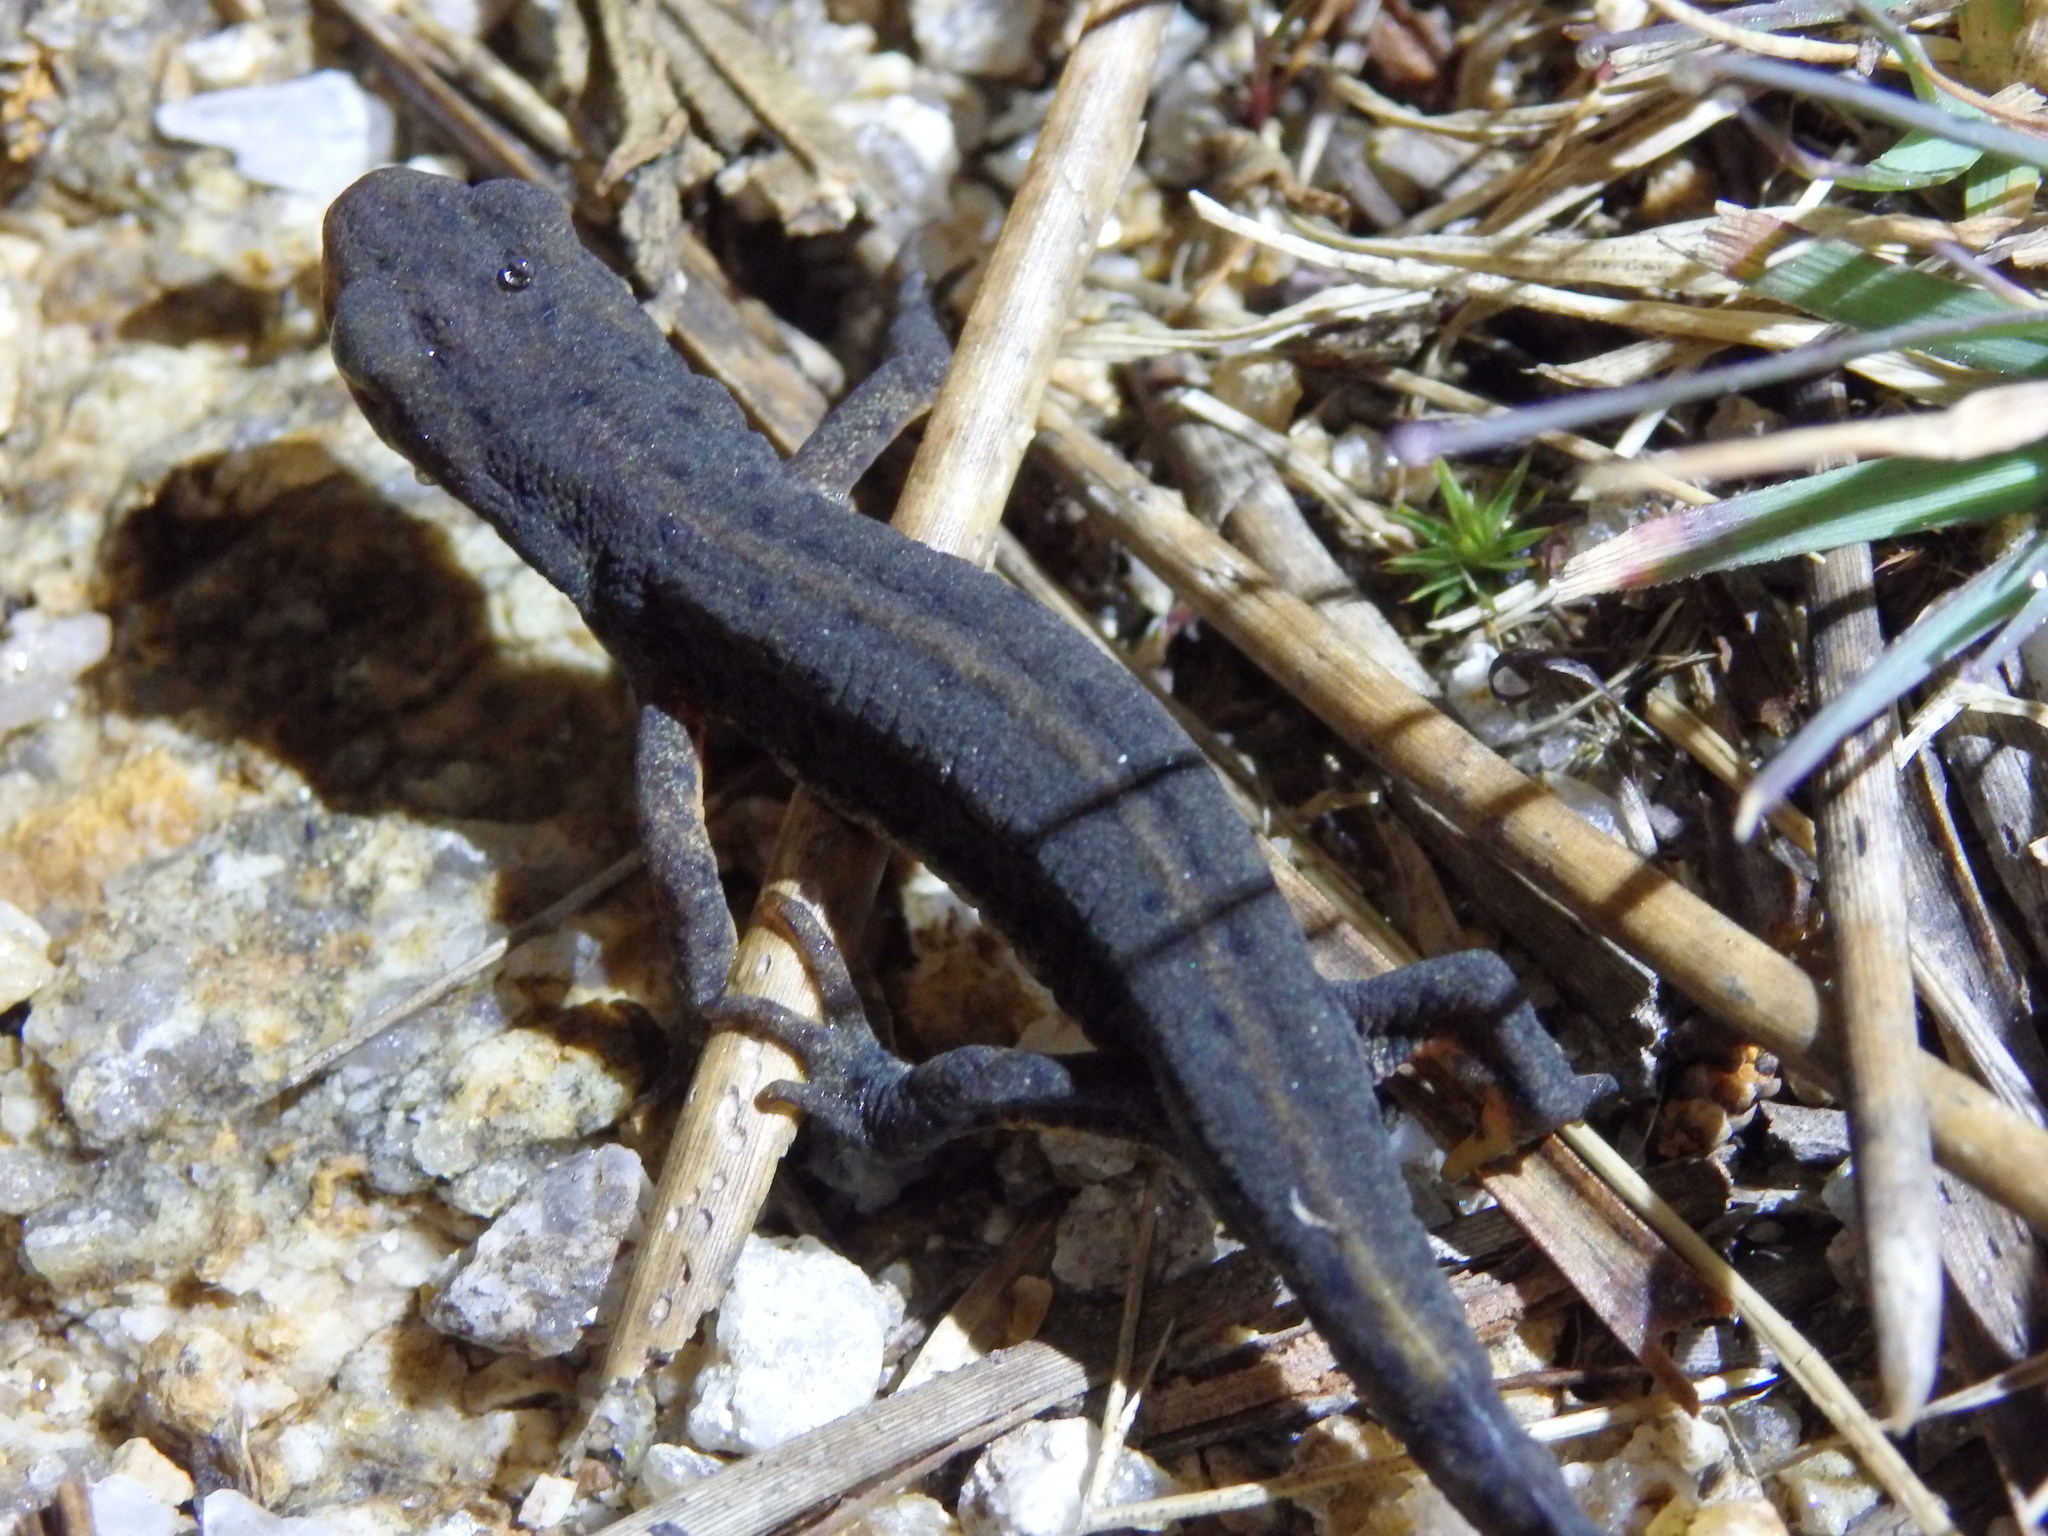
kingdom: Animalia
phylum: Chordata
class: Amphibia
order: Caudata
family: Salamandridae
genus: Lissotriton
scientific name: Lissotriton boscai
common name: Bosca's newt
